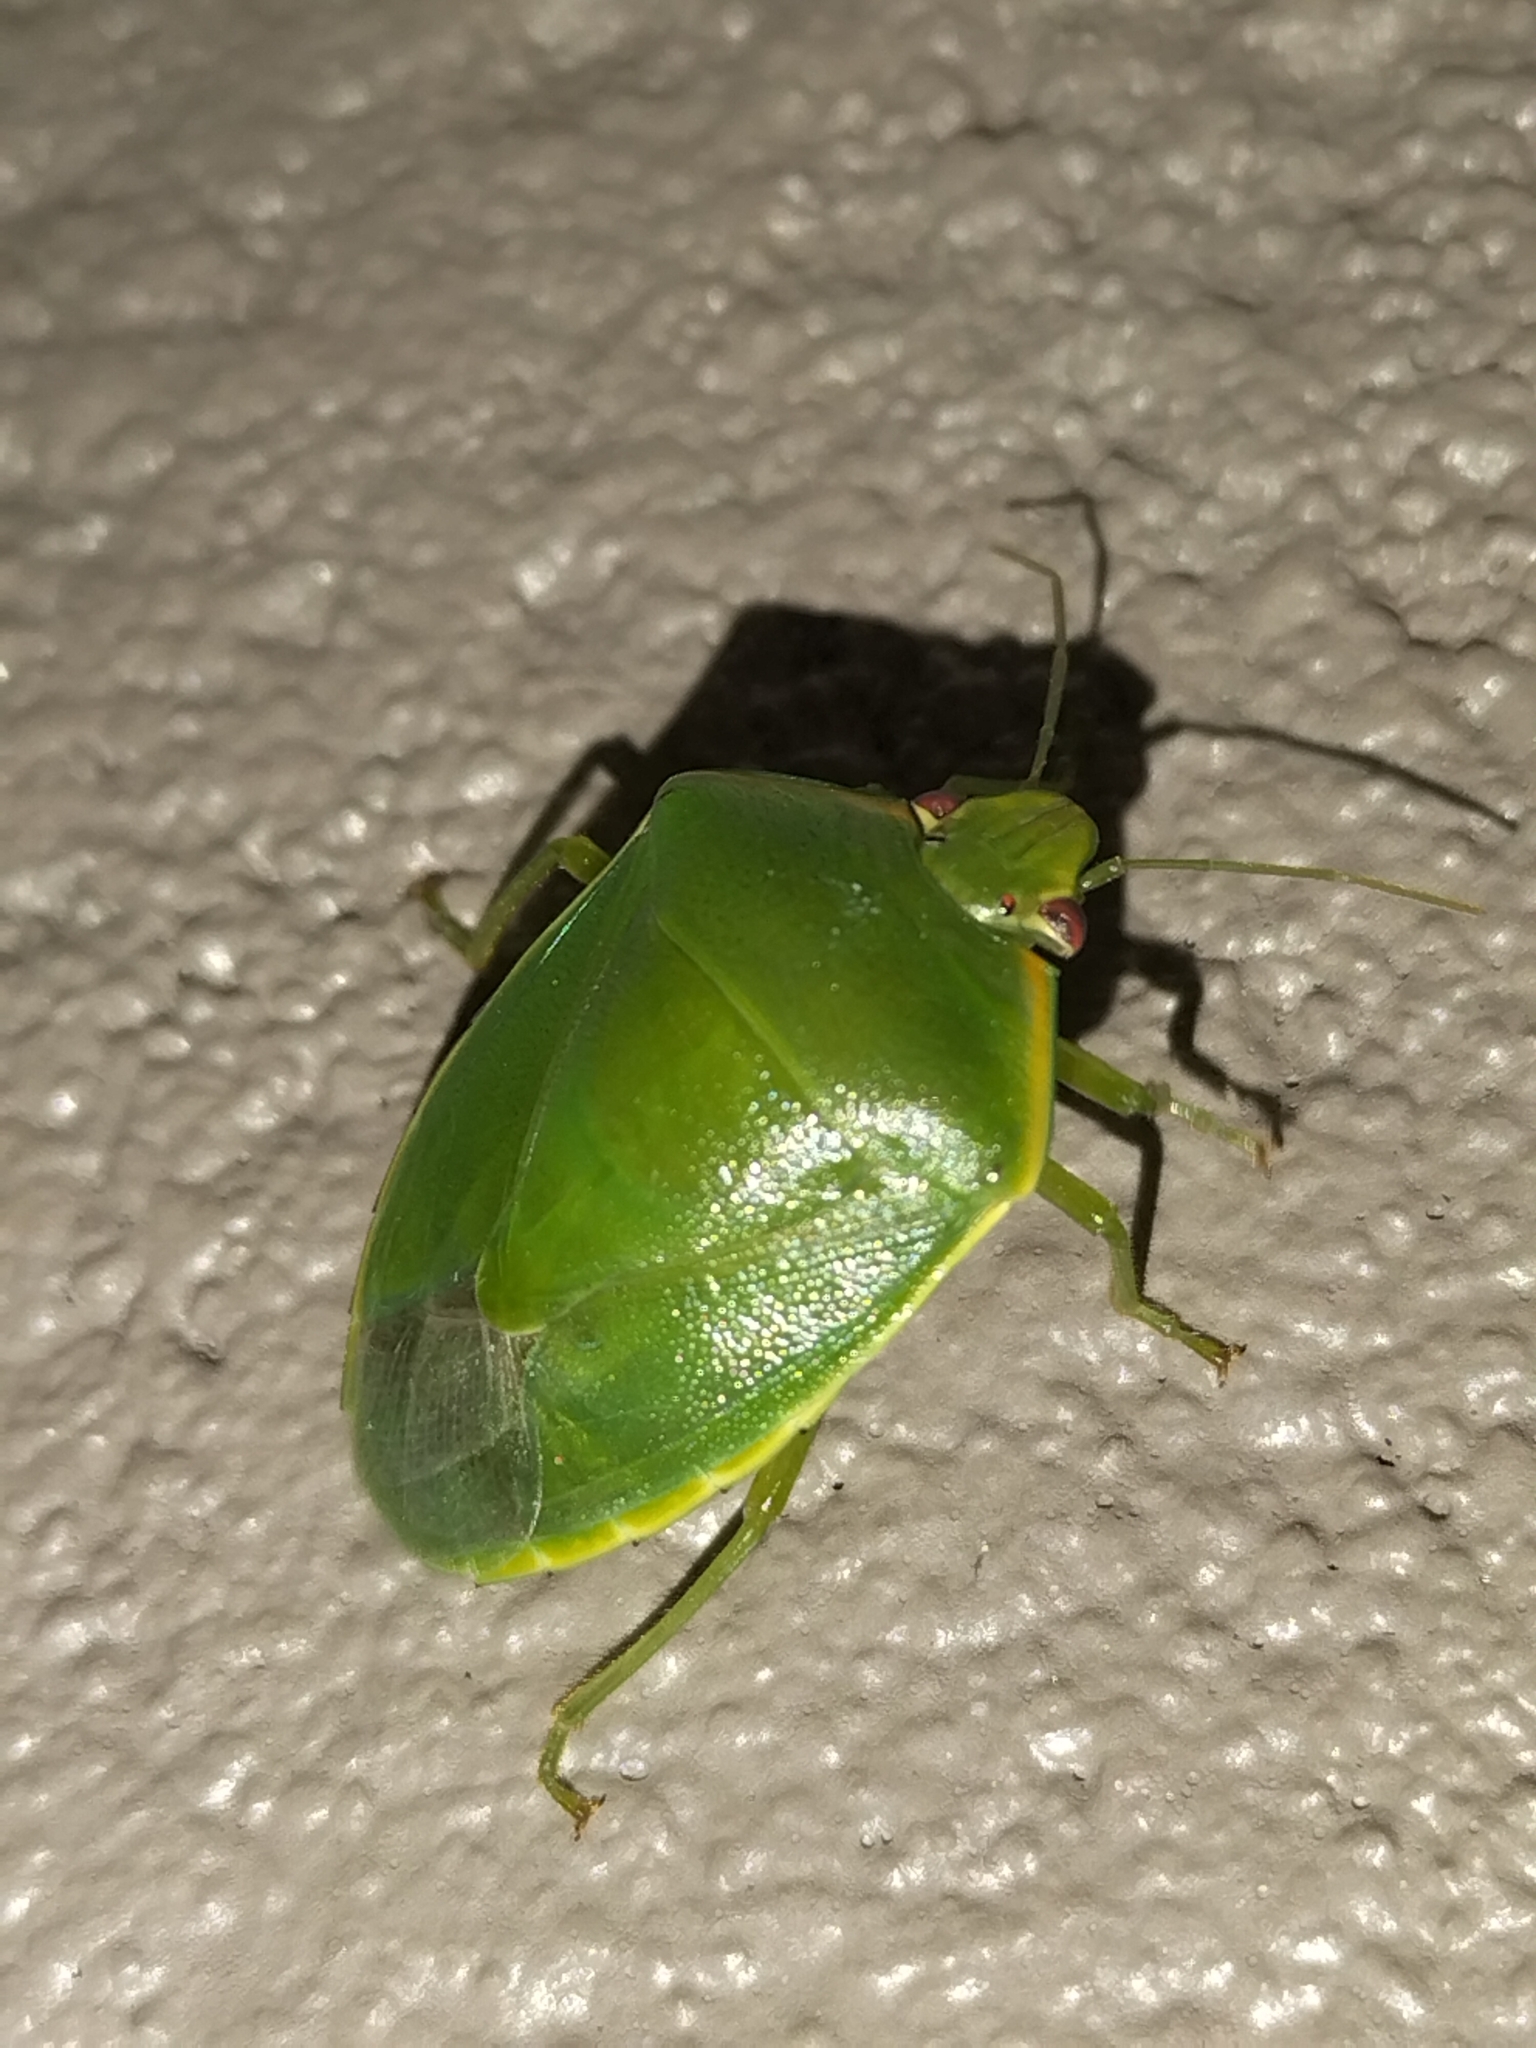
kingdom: Animalia
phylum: Arthropoda
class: Insecta
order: Hemiptera
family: Pentatomidae
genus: Glaucias
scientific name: Glaucias amyota
